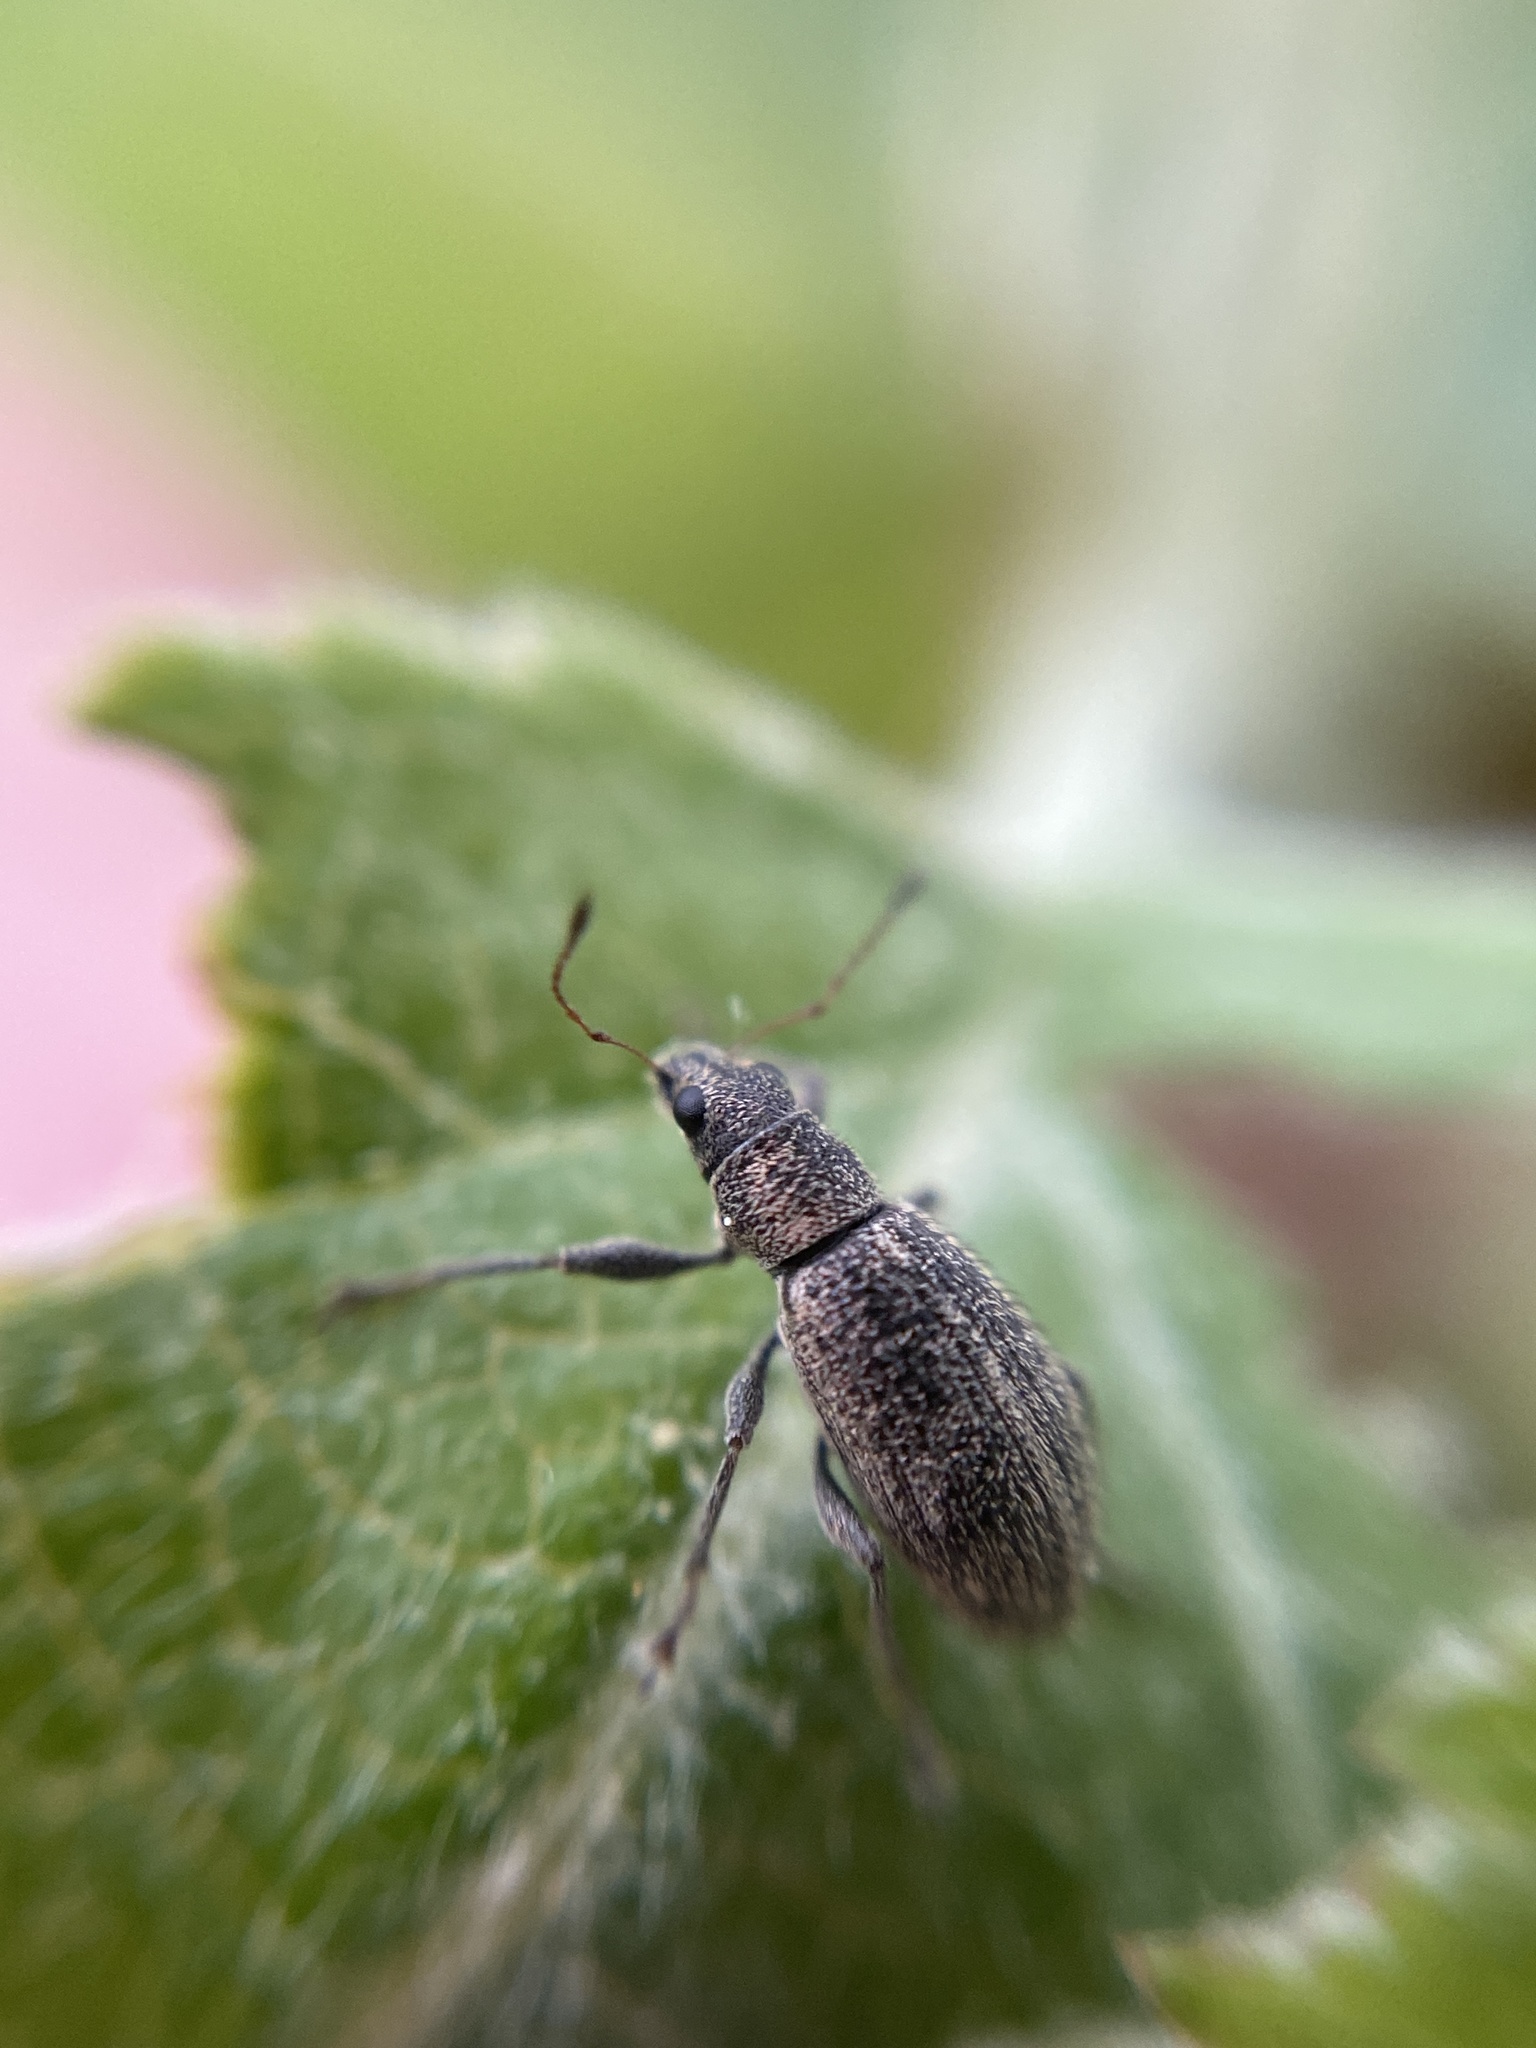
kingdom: Animalia
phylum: Arthropoda
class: Insecta
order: Coleoptera
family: Curculionidae
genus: Polydrusus
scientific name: Polydrusus inustus
